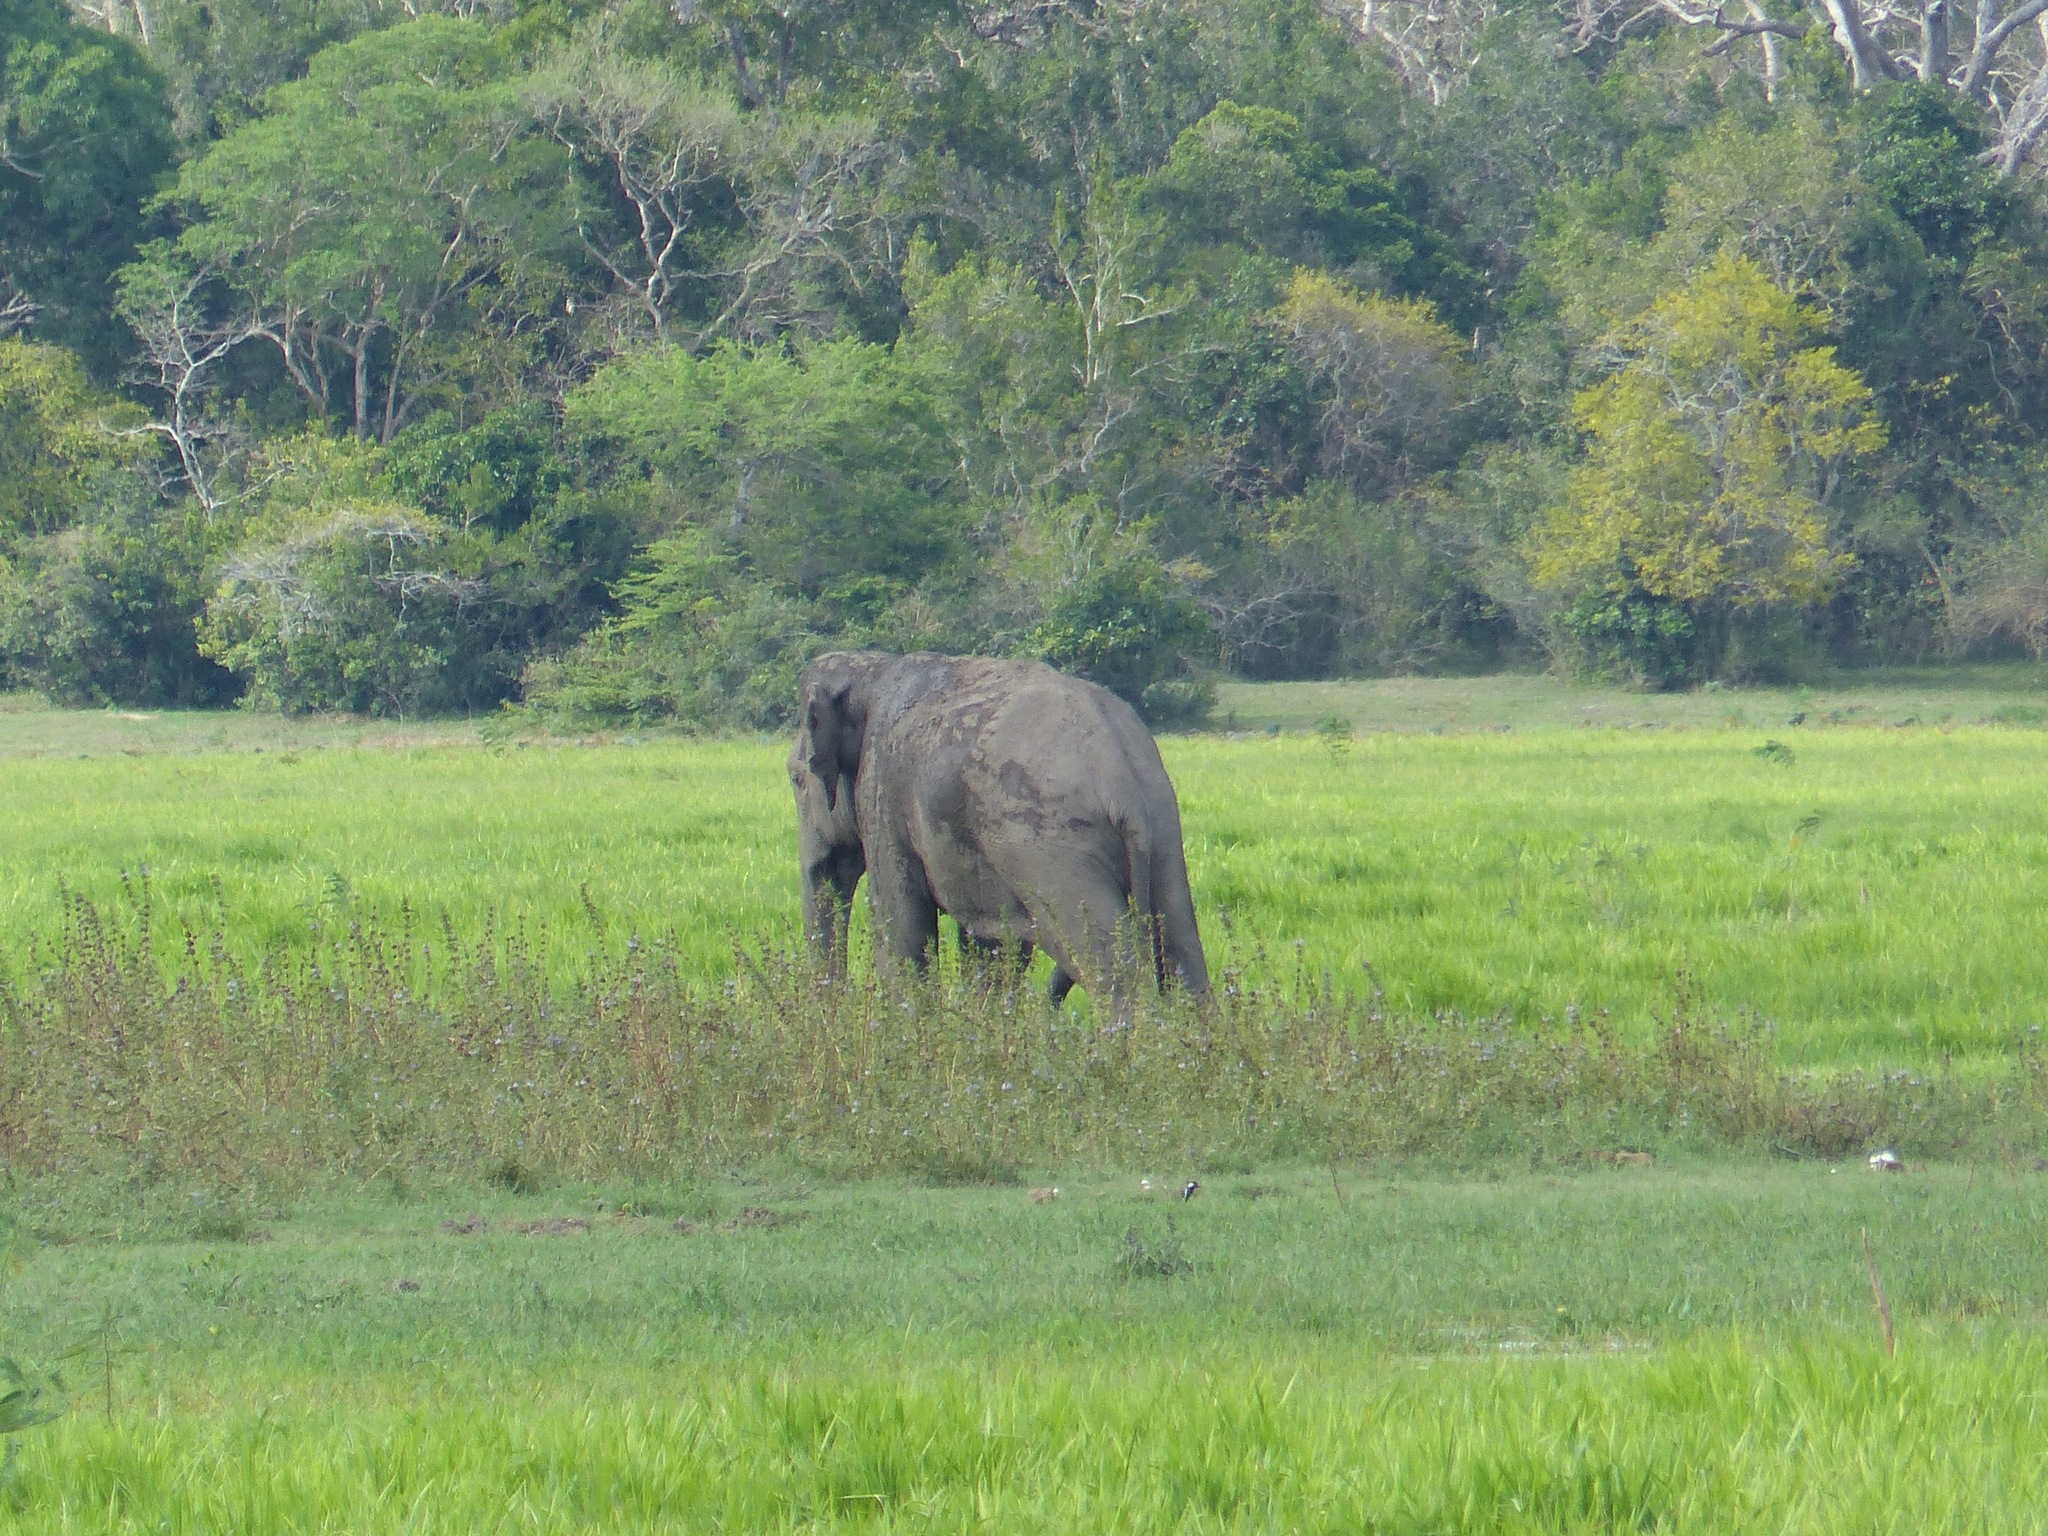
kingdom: Animalia
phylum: Chordata
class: Mammalia
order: Proboscidea
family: Elephantidae
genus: Elephas
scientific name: Elephas maximus
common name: Asian elephant
